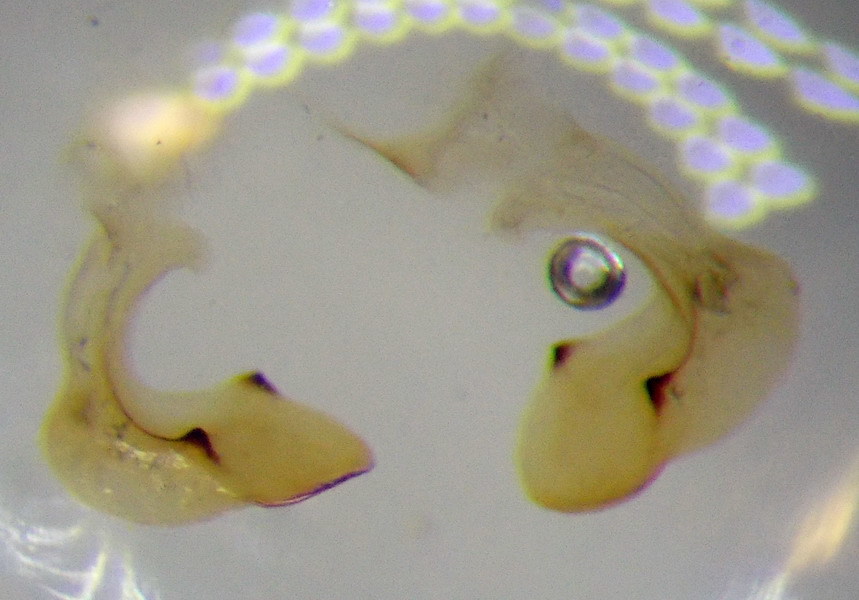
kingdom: Animalia
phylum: Arthropoda
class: Insecta
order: Hemiptera
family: Pentatomidae
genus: Carpocoris
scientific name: Carpocoris coreanus
